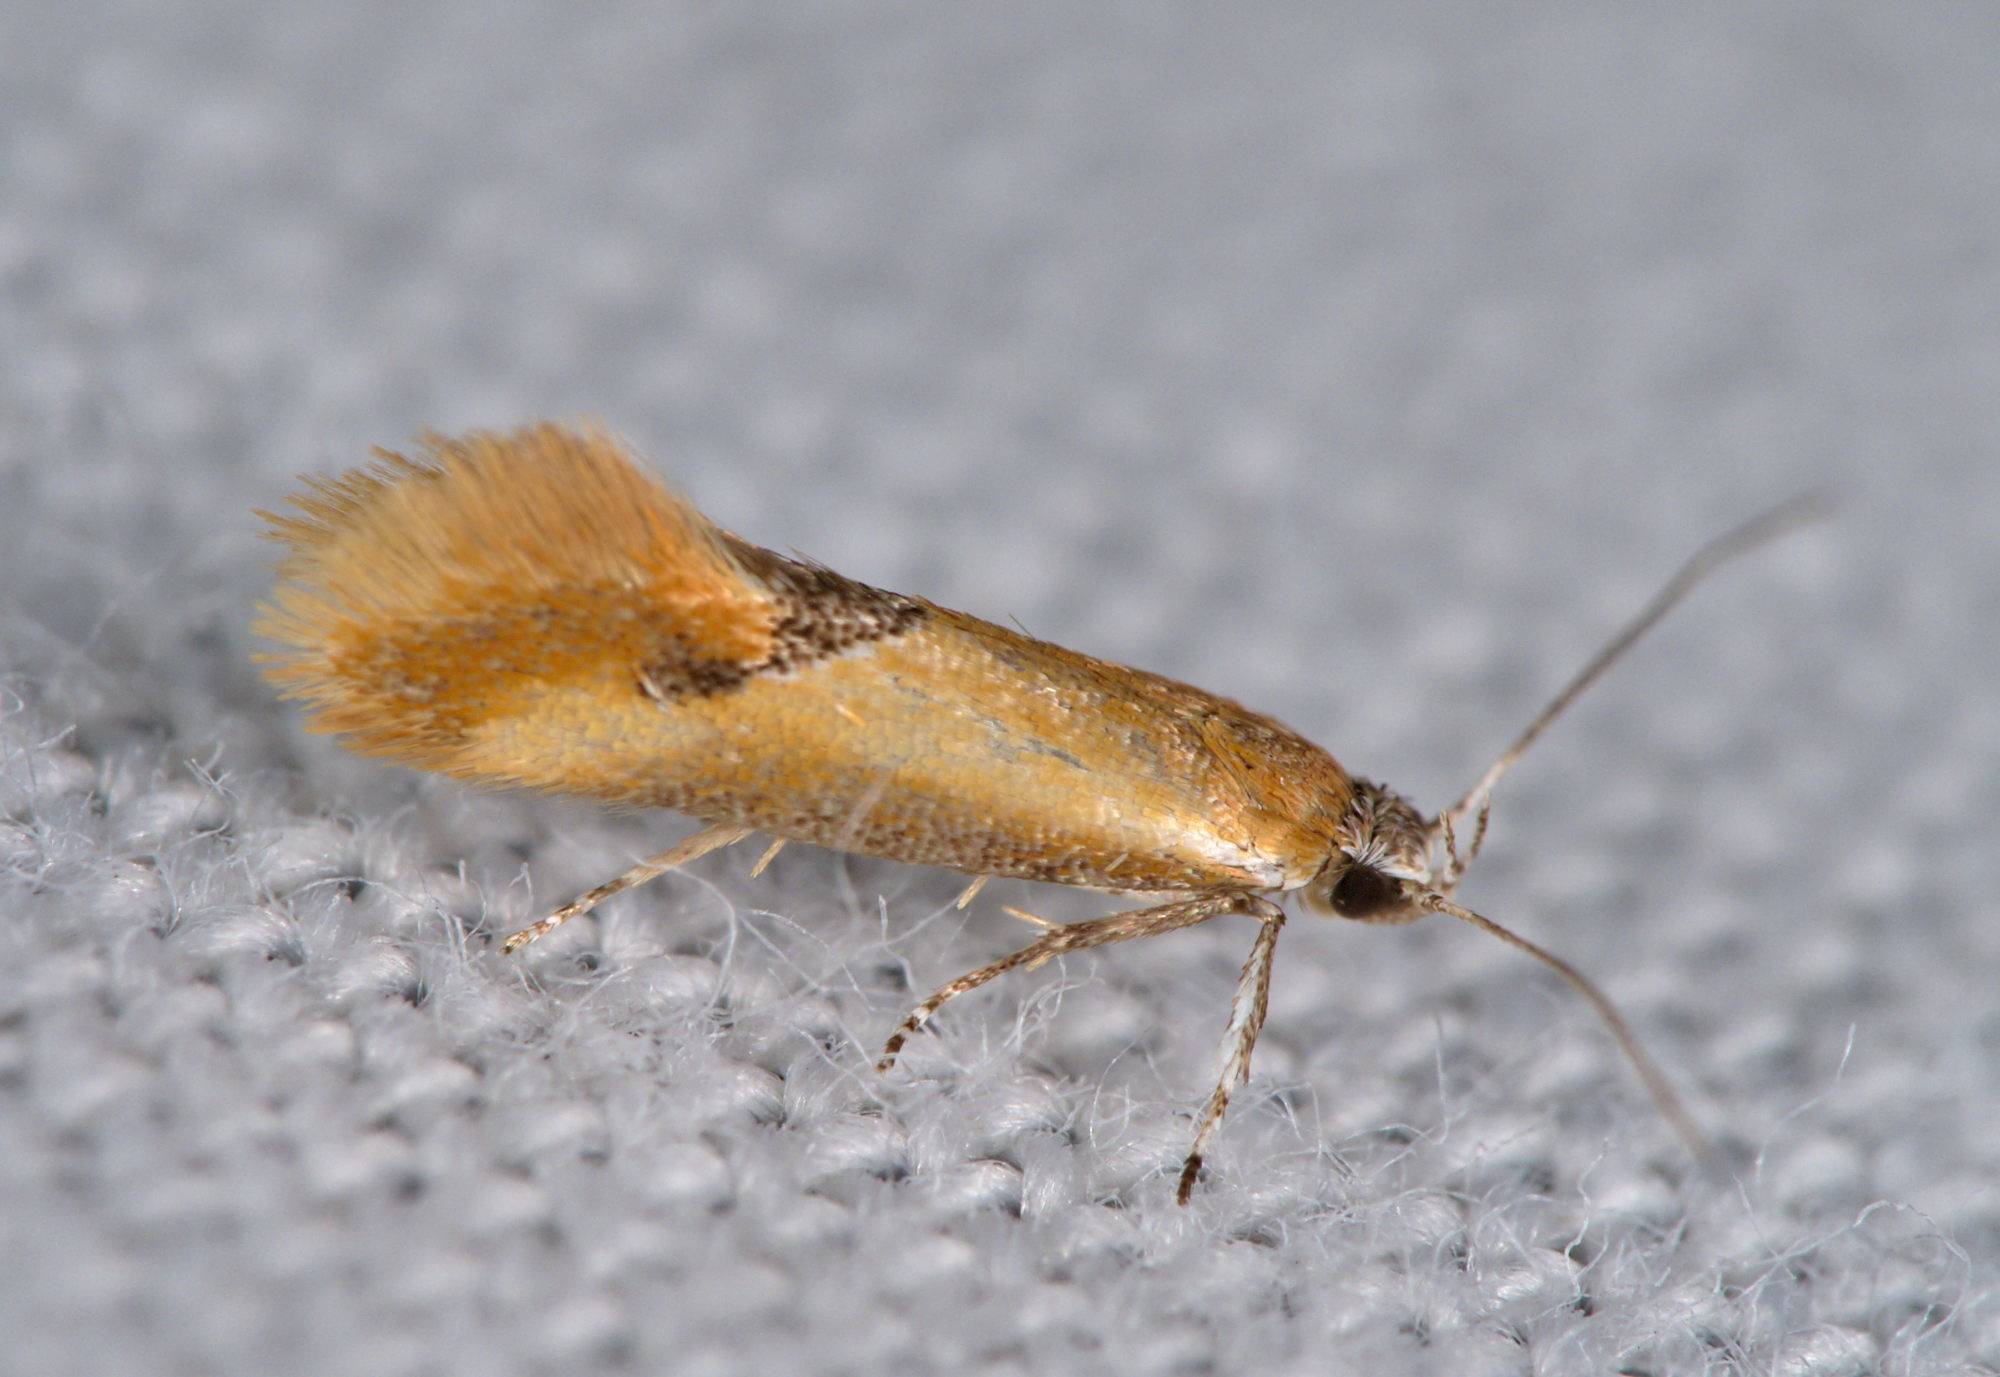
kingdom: Animalia
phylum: Arthropoda
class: Insecta
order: Lepidoptera
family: Oecophoridae
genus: Batia
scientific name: Batia lunaris
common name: Moth
